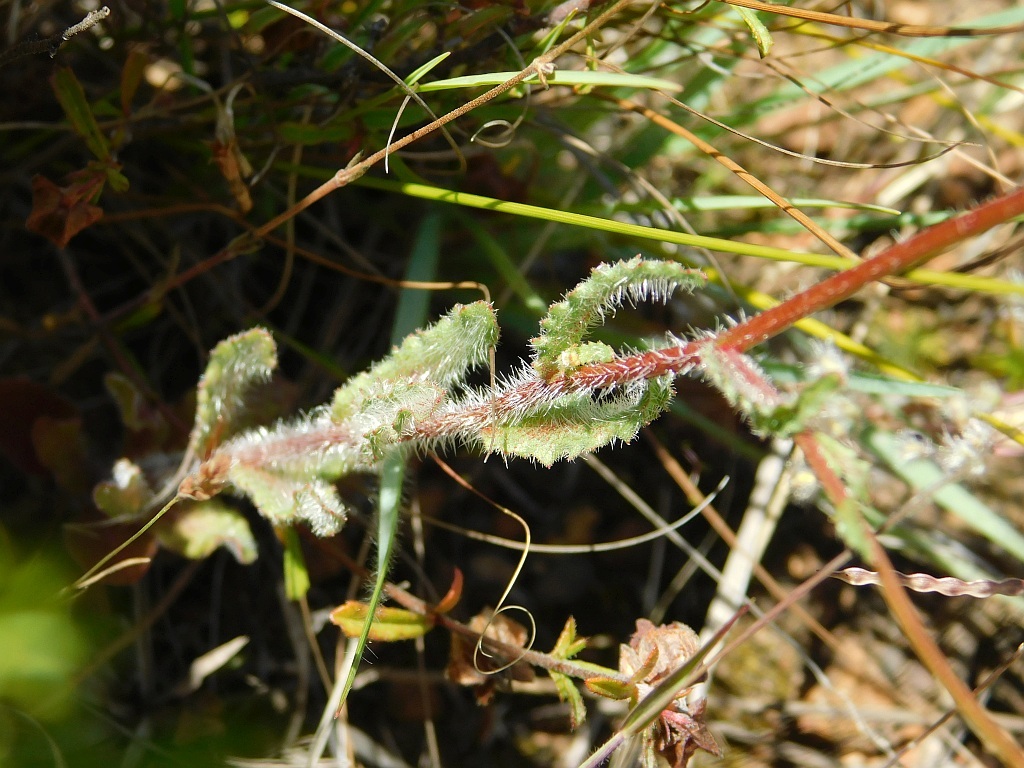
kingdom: Plantae
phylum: Tracheophyta
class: Magnoliopsida
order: Asterales
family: Campanulaceae
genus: Wahlenbergia
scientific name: Wahlenbergia capensis
